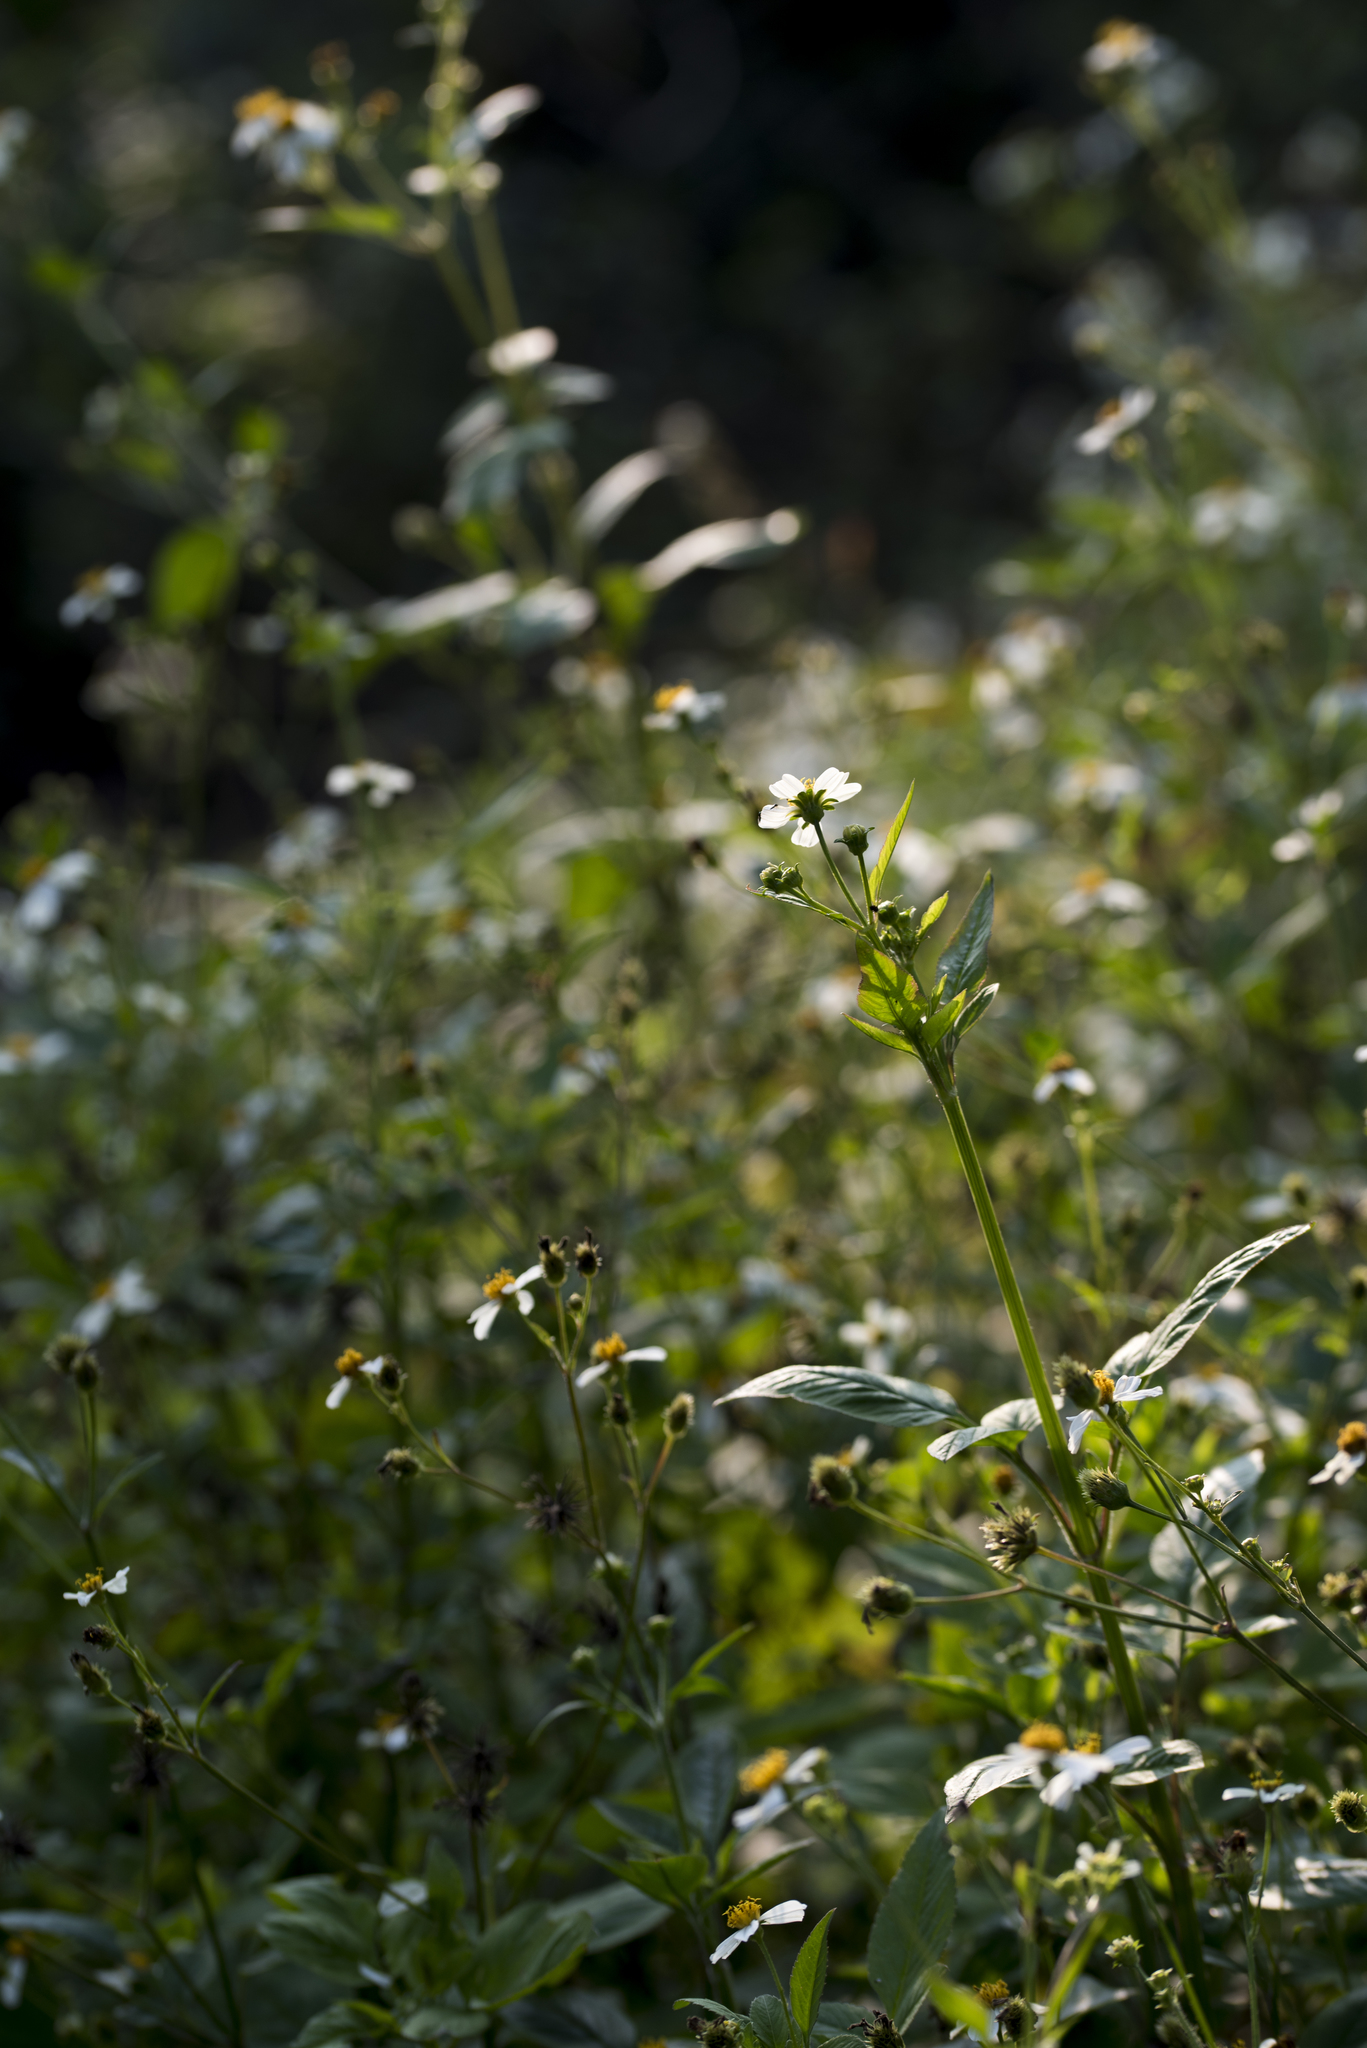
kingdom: Plantae
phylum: Tracheophyta
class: Magnoliopsida
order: Asterales
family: Asteraceae
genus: Bidens
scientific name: Bidens alba
